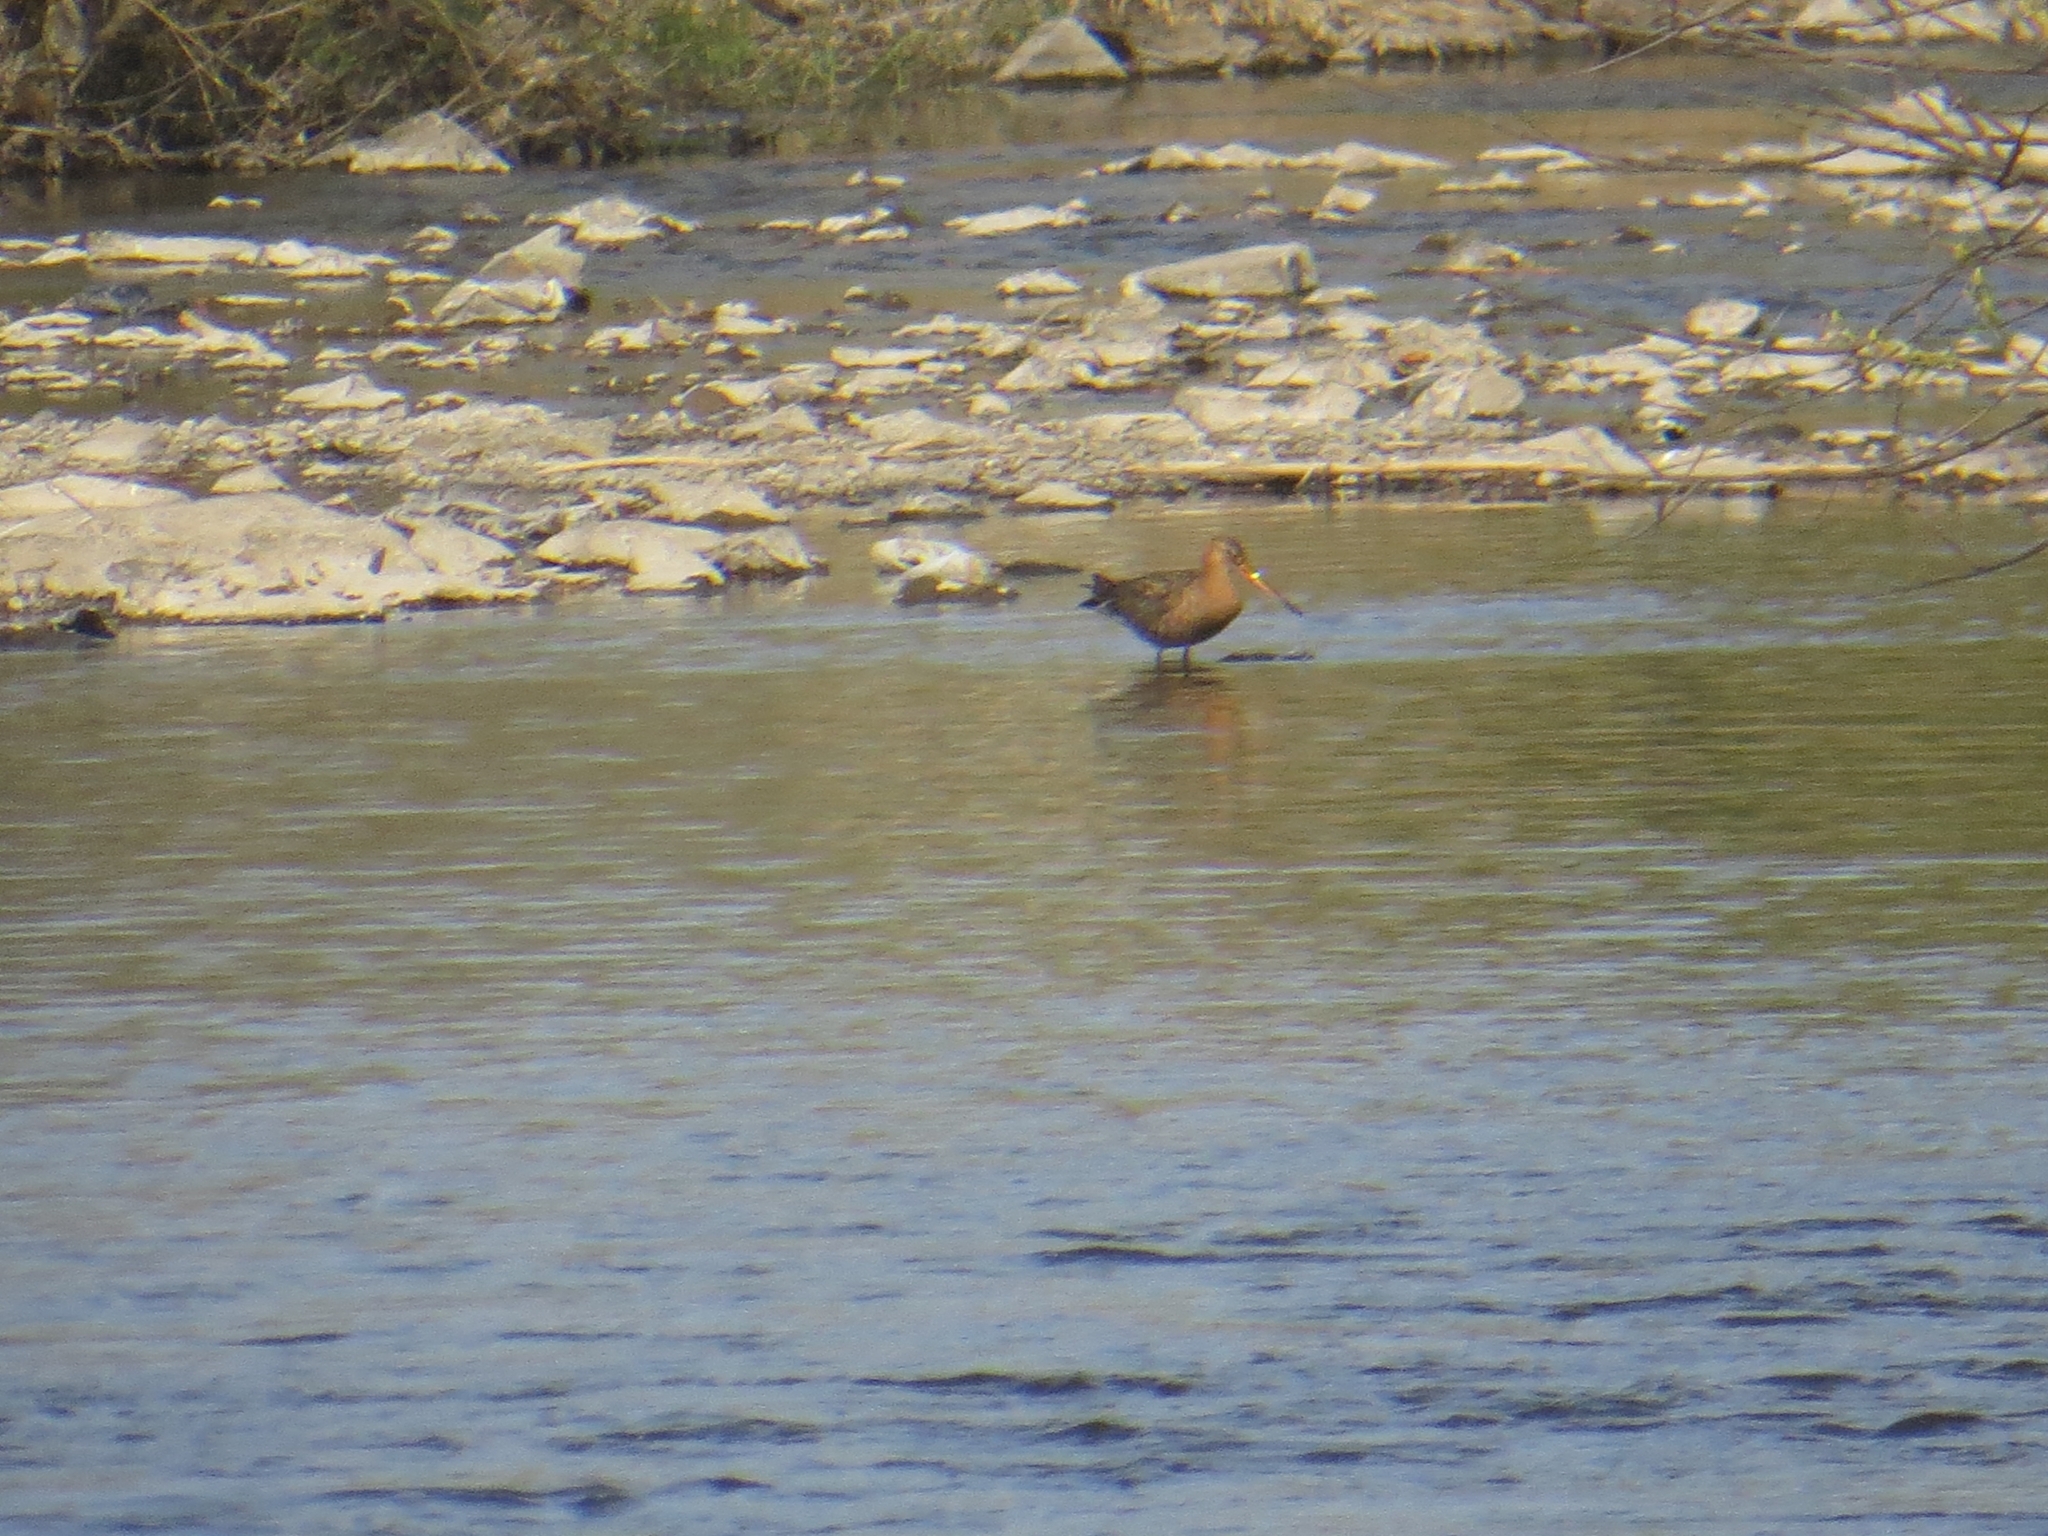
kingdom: Animalia
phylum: Chordata
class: Aves
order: Charadriiformes
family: Scolopacidae
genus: Limosa
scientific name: Limosa limosa
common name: Black-tailed godwit
